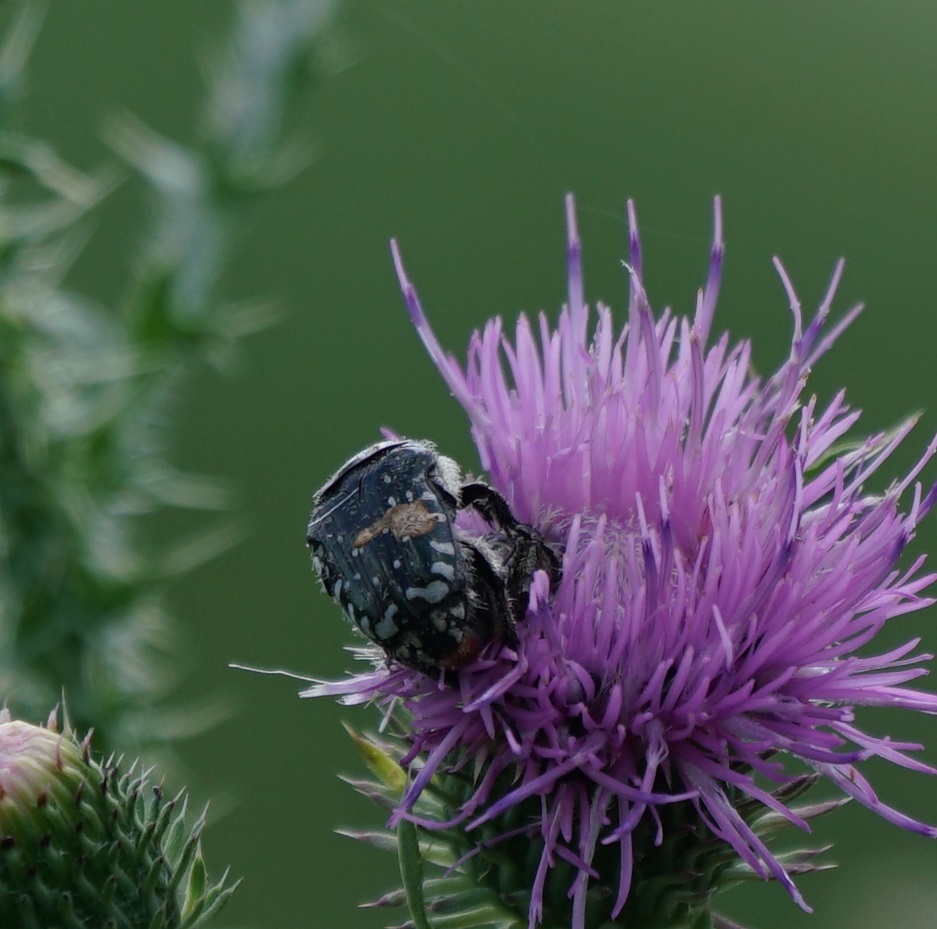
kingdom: Animalia
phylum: Arthropoda
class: Insecta
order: Coleoptera
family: Scarabaeidae
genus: Oxythyrea
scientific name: Oxythyrea funesta
